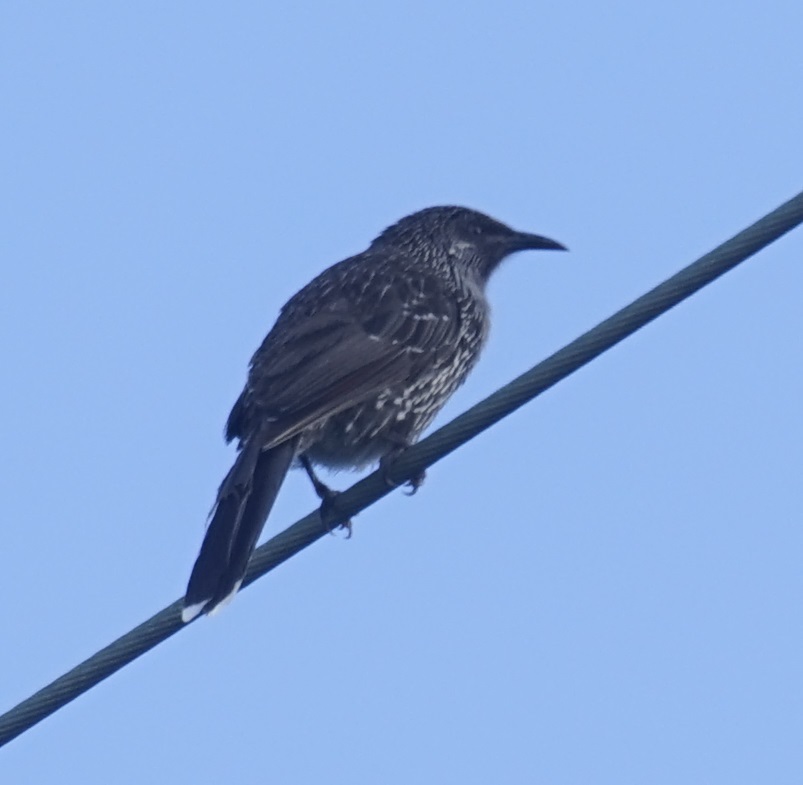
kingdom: Animalia
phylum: Chordata
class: Aves
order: Passeriformes
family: Meliphagidae
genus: Anthochaera
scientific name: Anthochaera chrysoptera
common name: Little wattlebird
